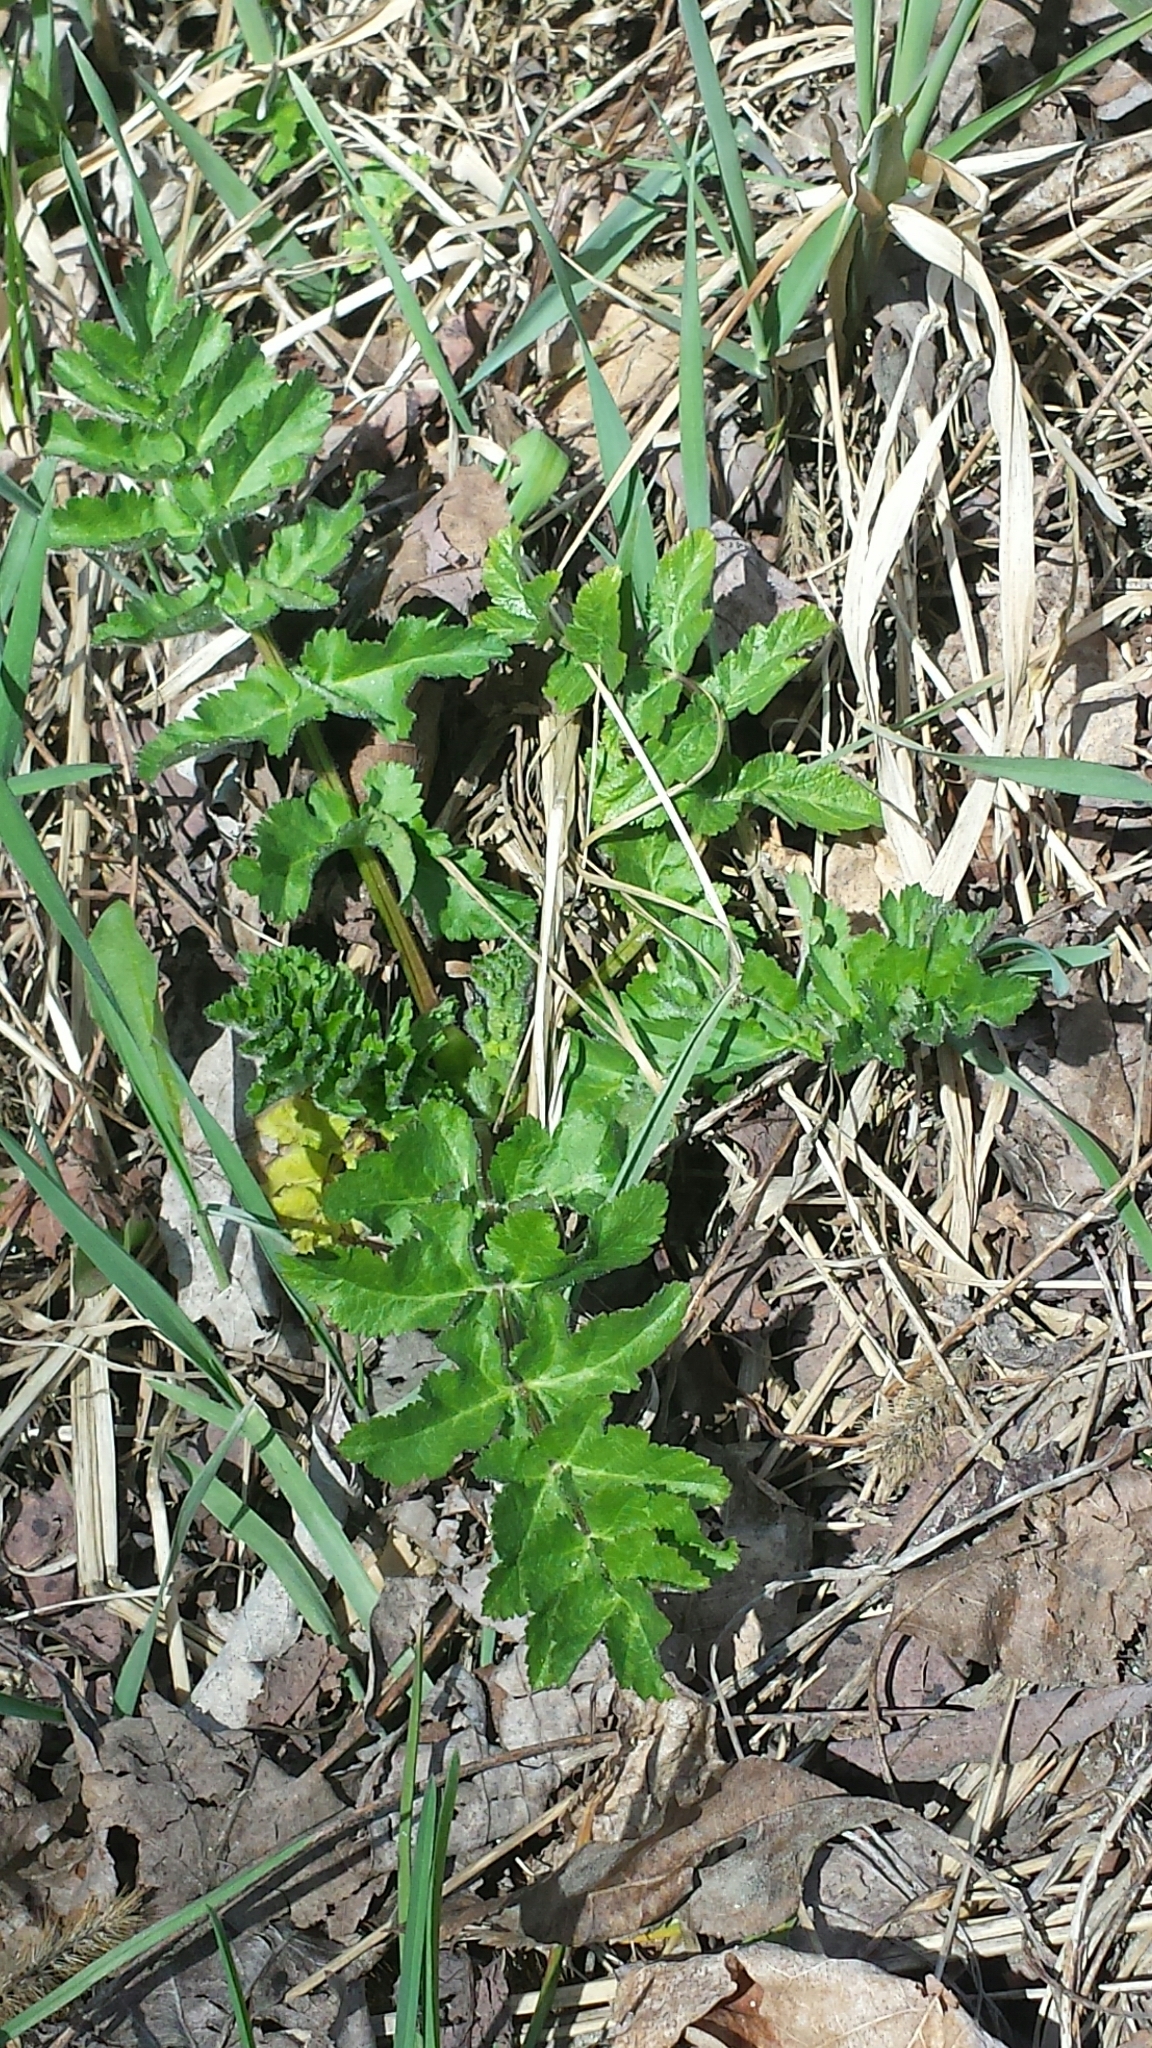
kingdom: Plantae
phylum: Tracheophyta
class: Magnoliopsida
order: Apiales
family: Apiaceae
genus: Pastinaca
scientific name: Pastinaca sativa
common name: Wild parsnip
